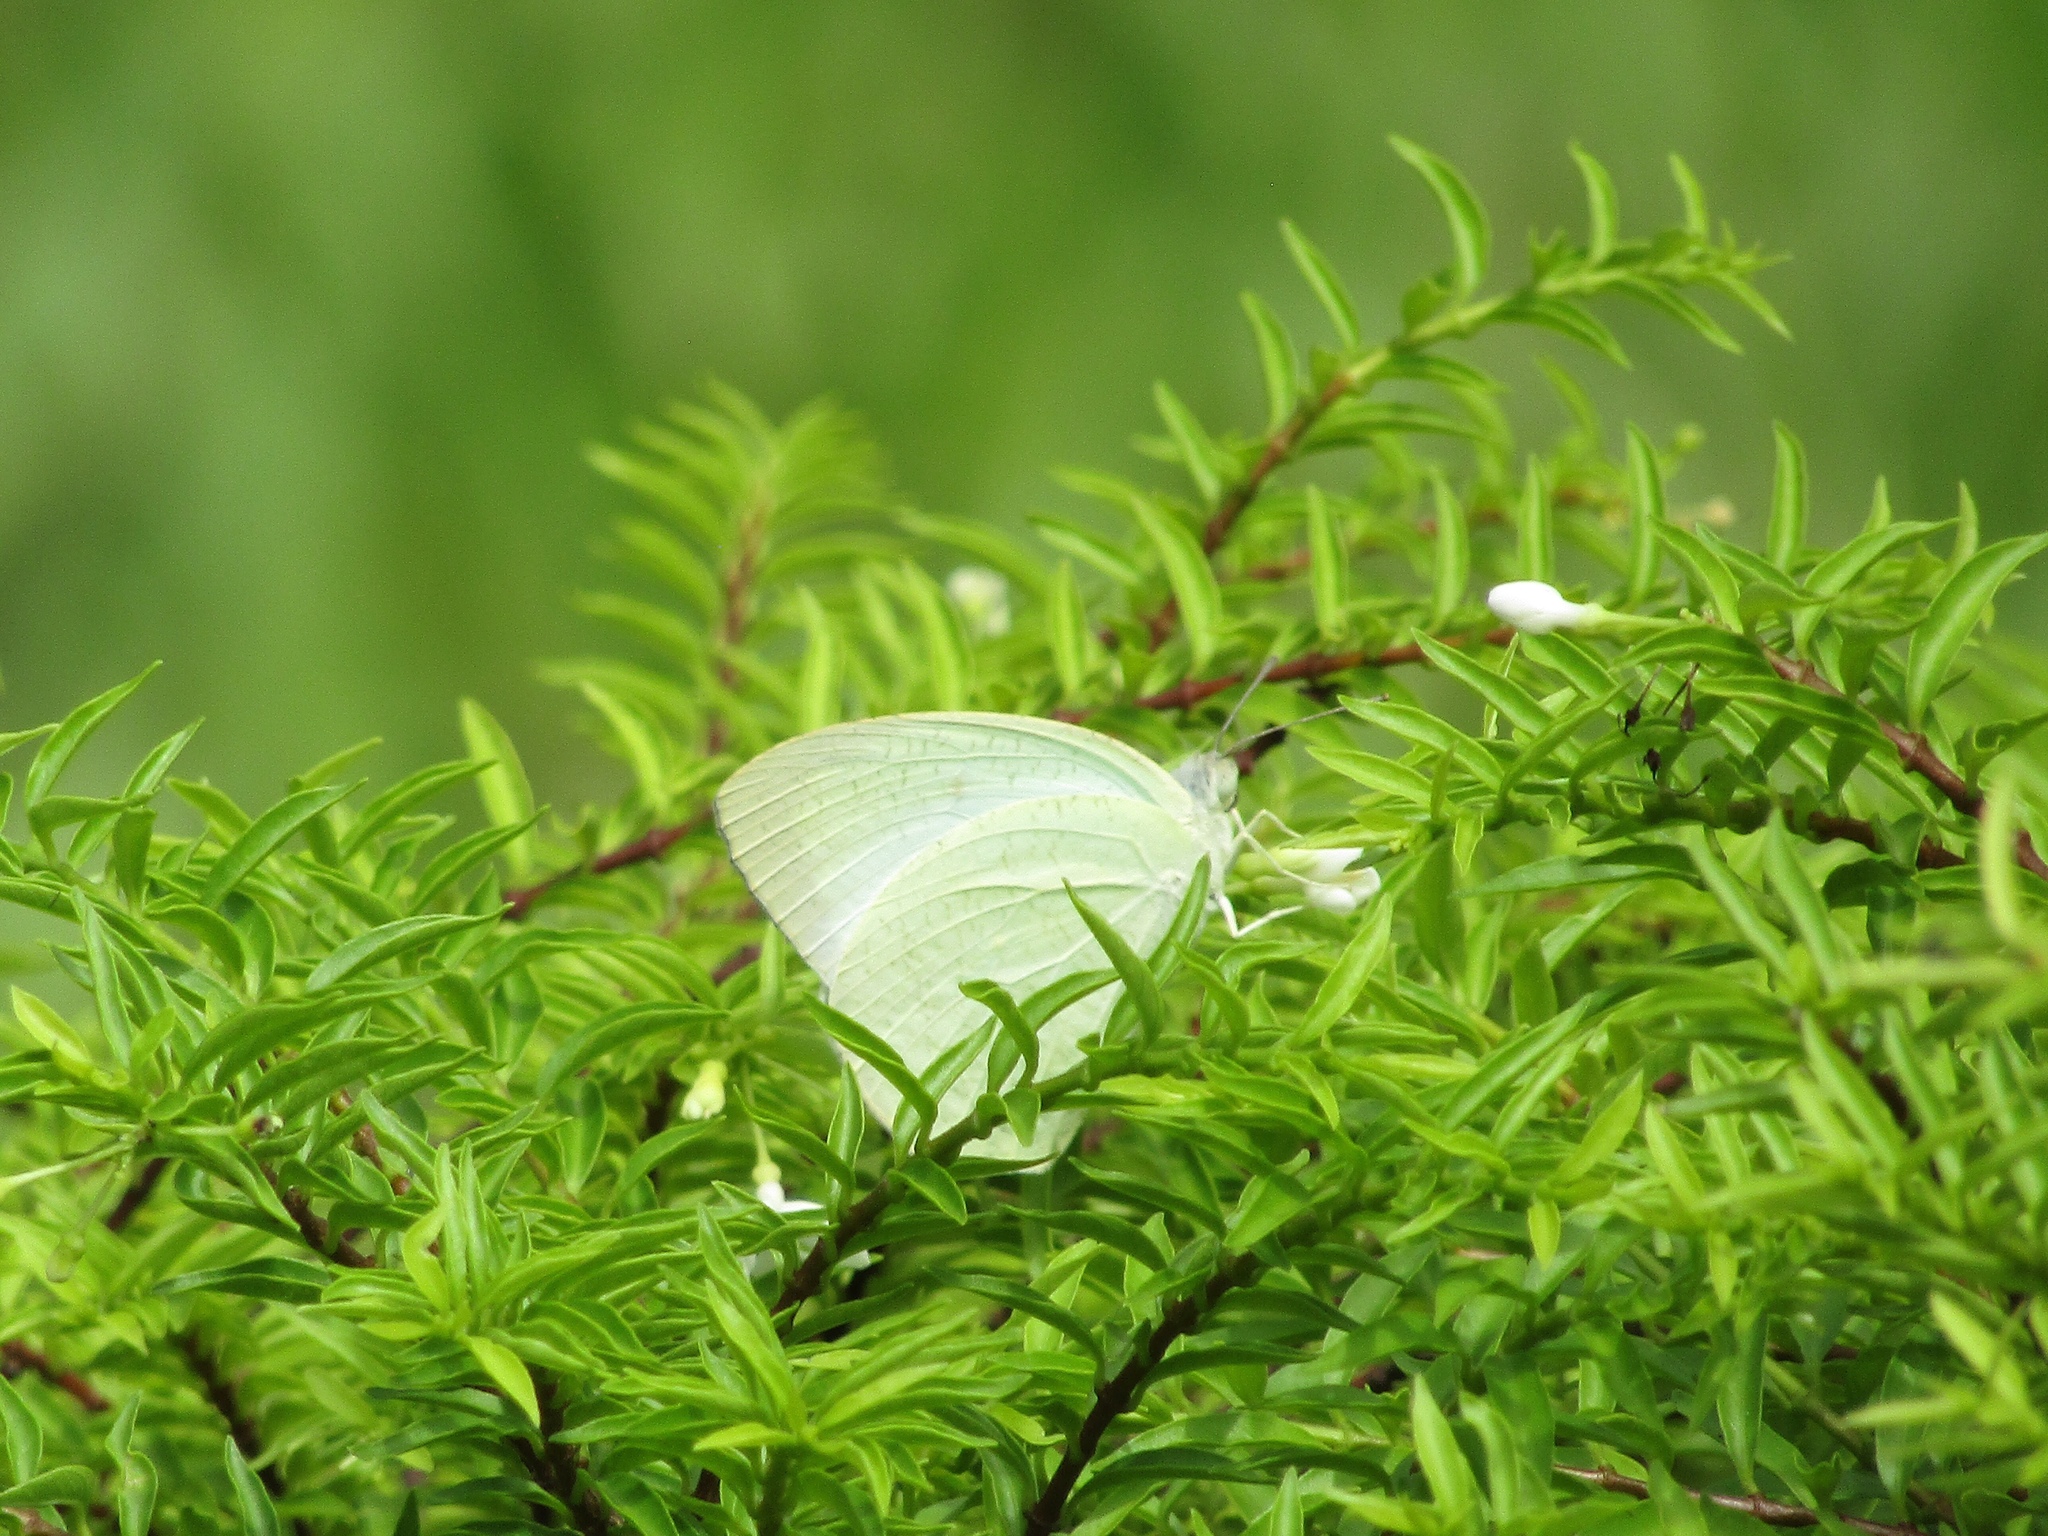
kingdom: Animalia
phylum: Arthropoda
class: Insecta
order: Lepidoptera
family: Pieridae
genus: Catopsilia
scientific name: Catopsilia pyranthe
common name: Mottled emigrant
